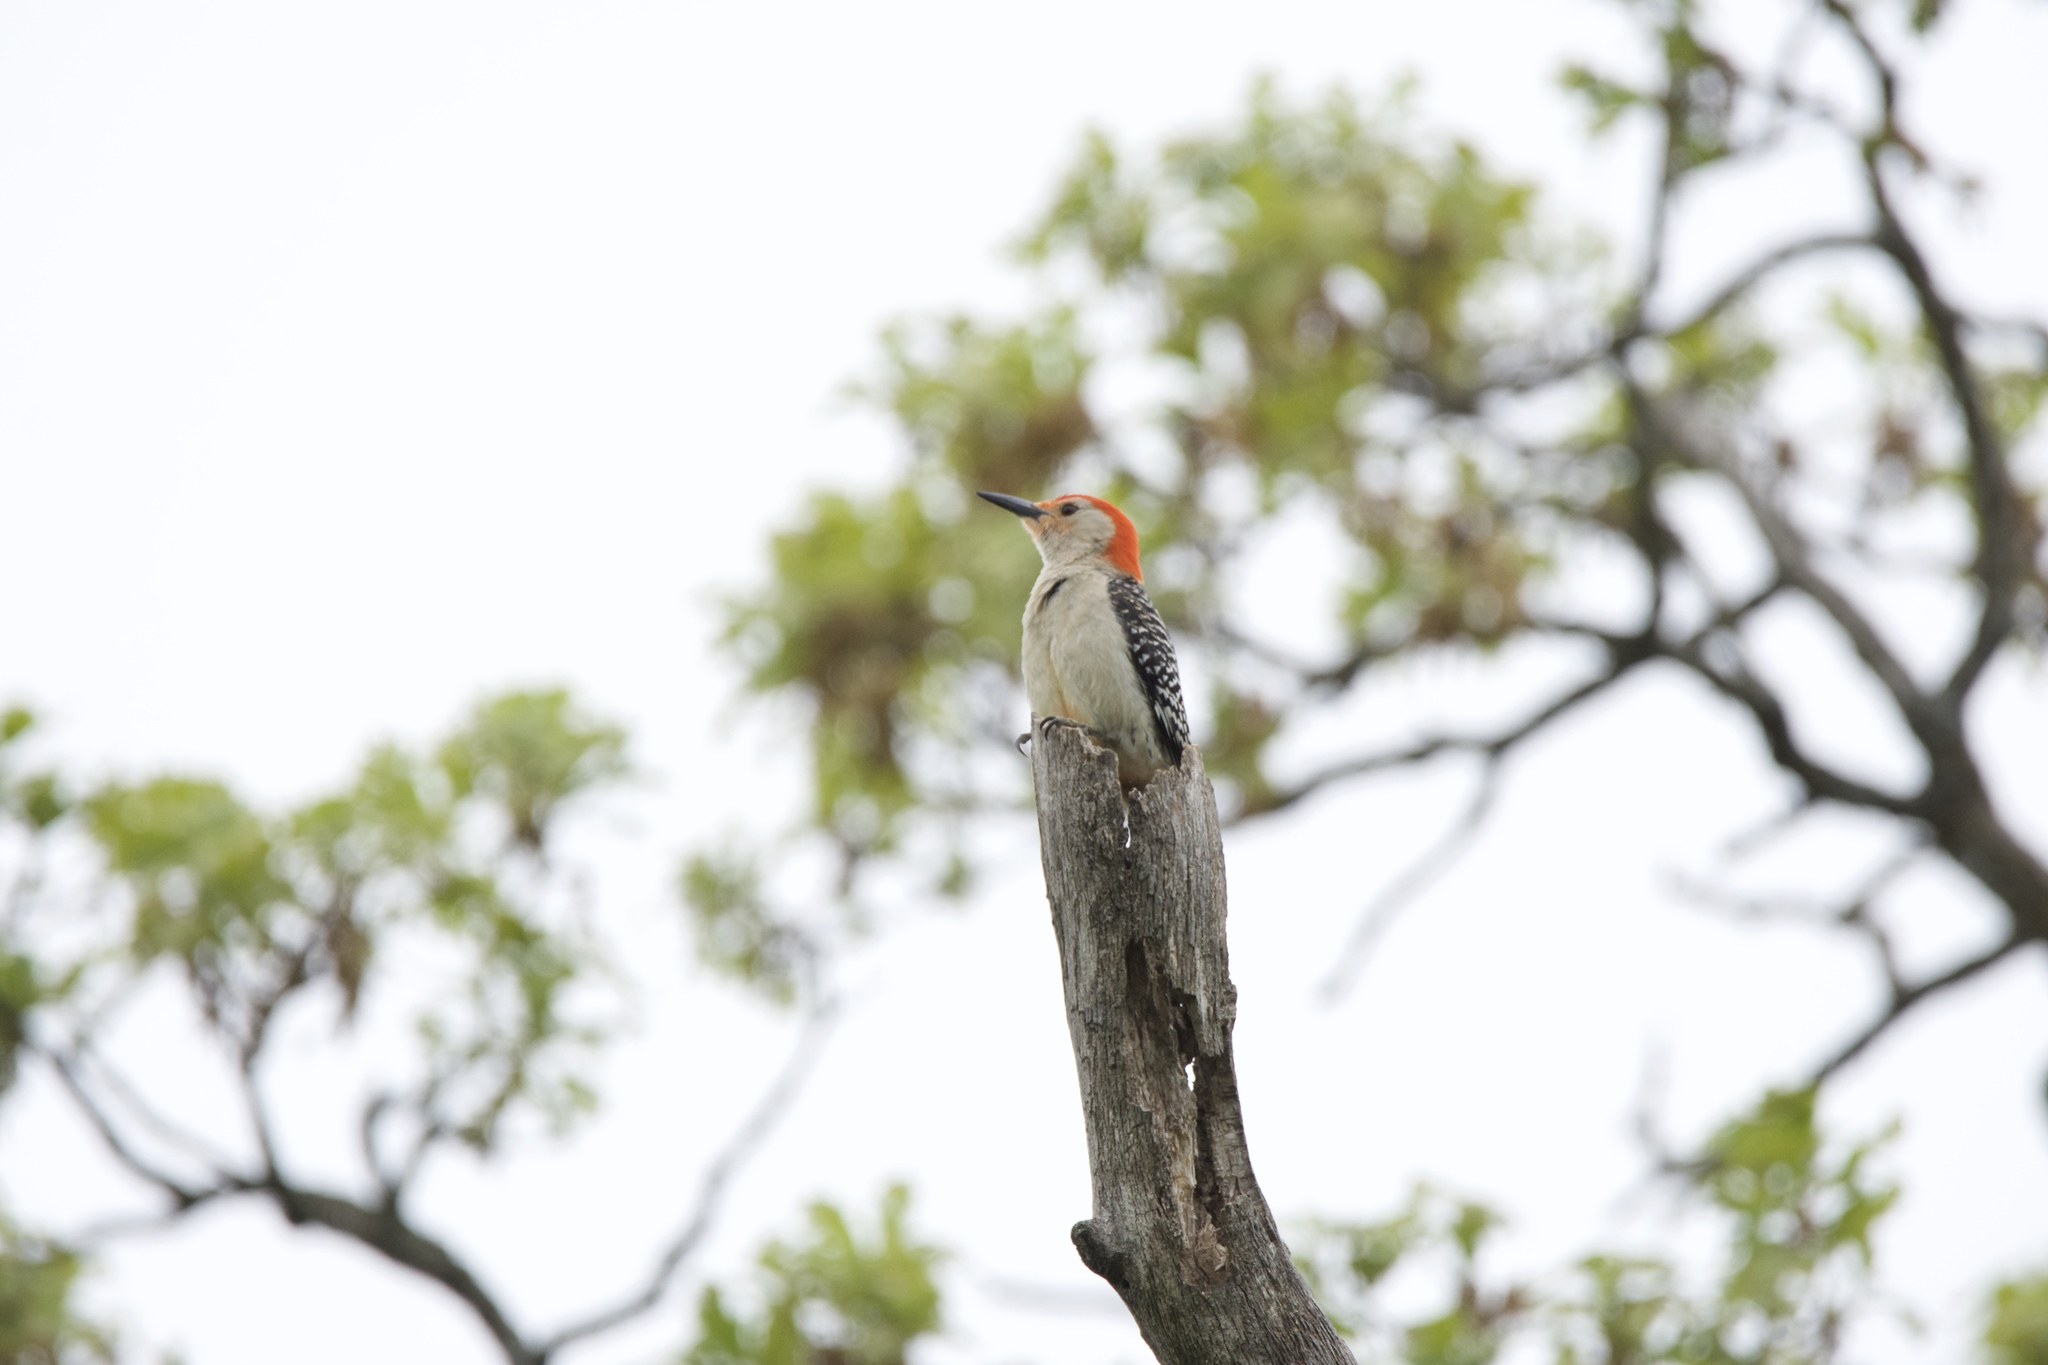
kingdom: Animalia
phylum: Chordata
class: Aves
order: Piciformes
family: Picidae
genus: Melanerpes
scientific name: Melanerpes carolinus
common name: Red-bellied woodpecker
